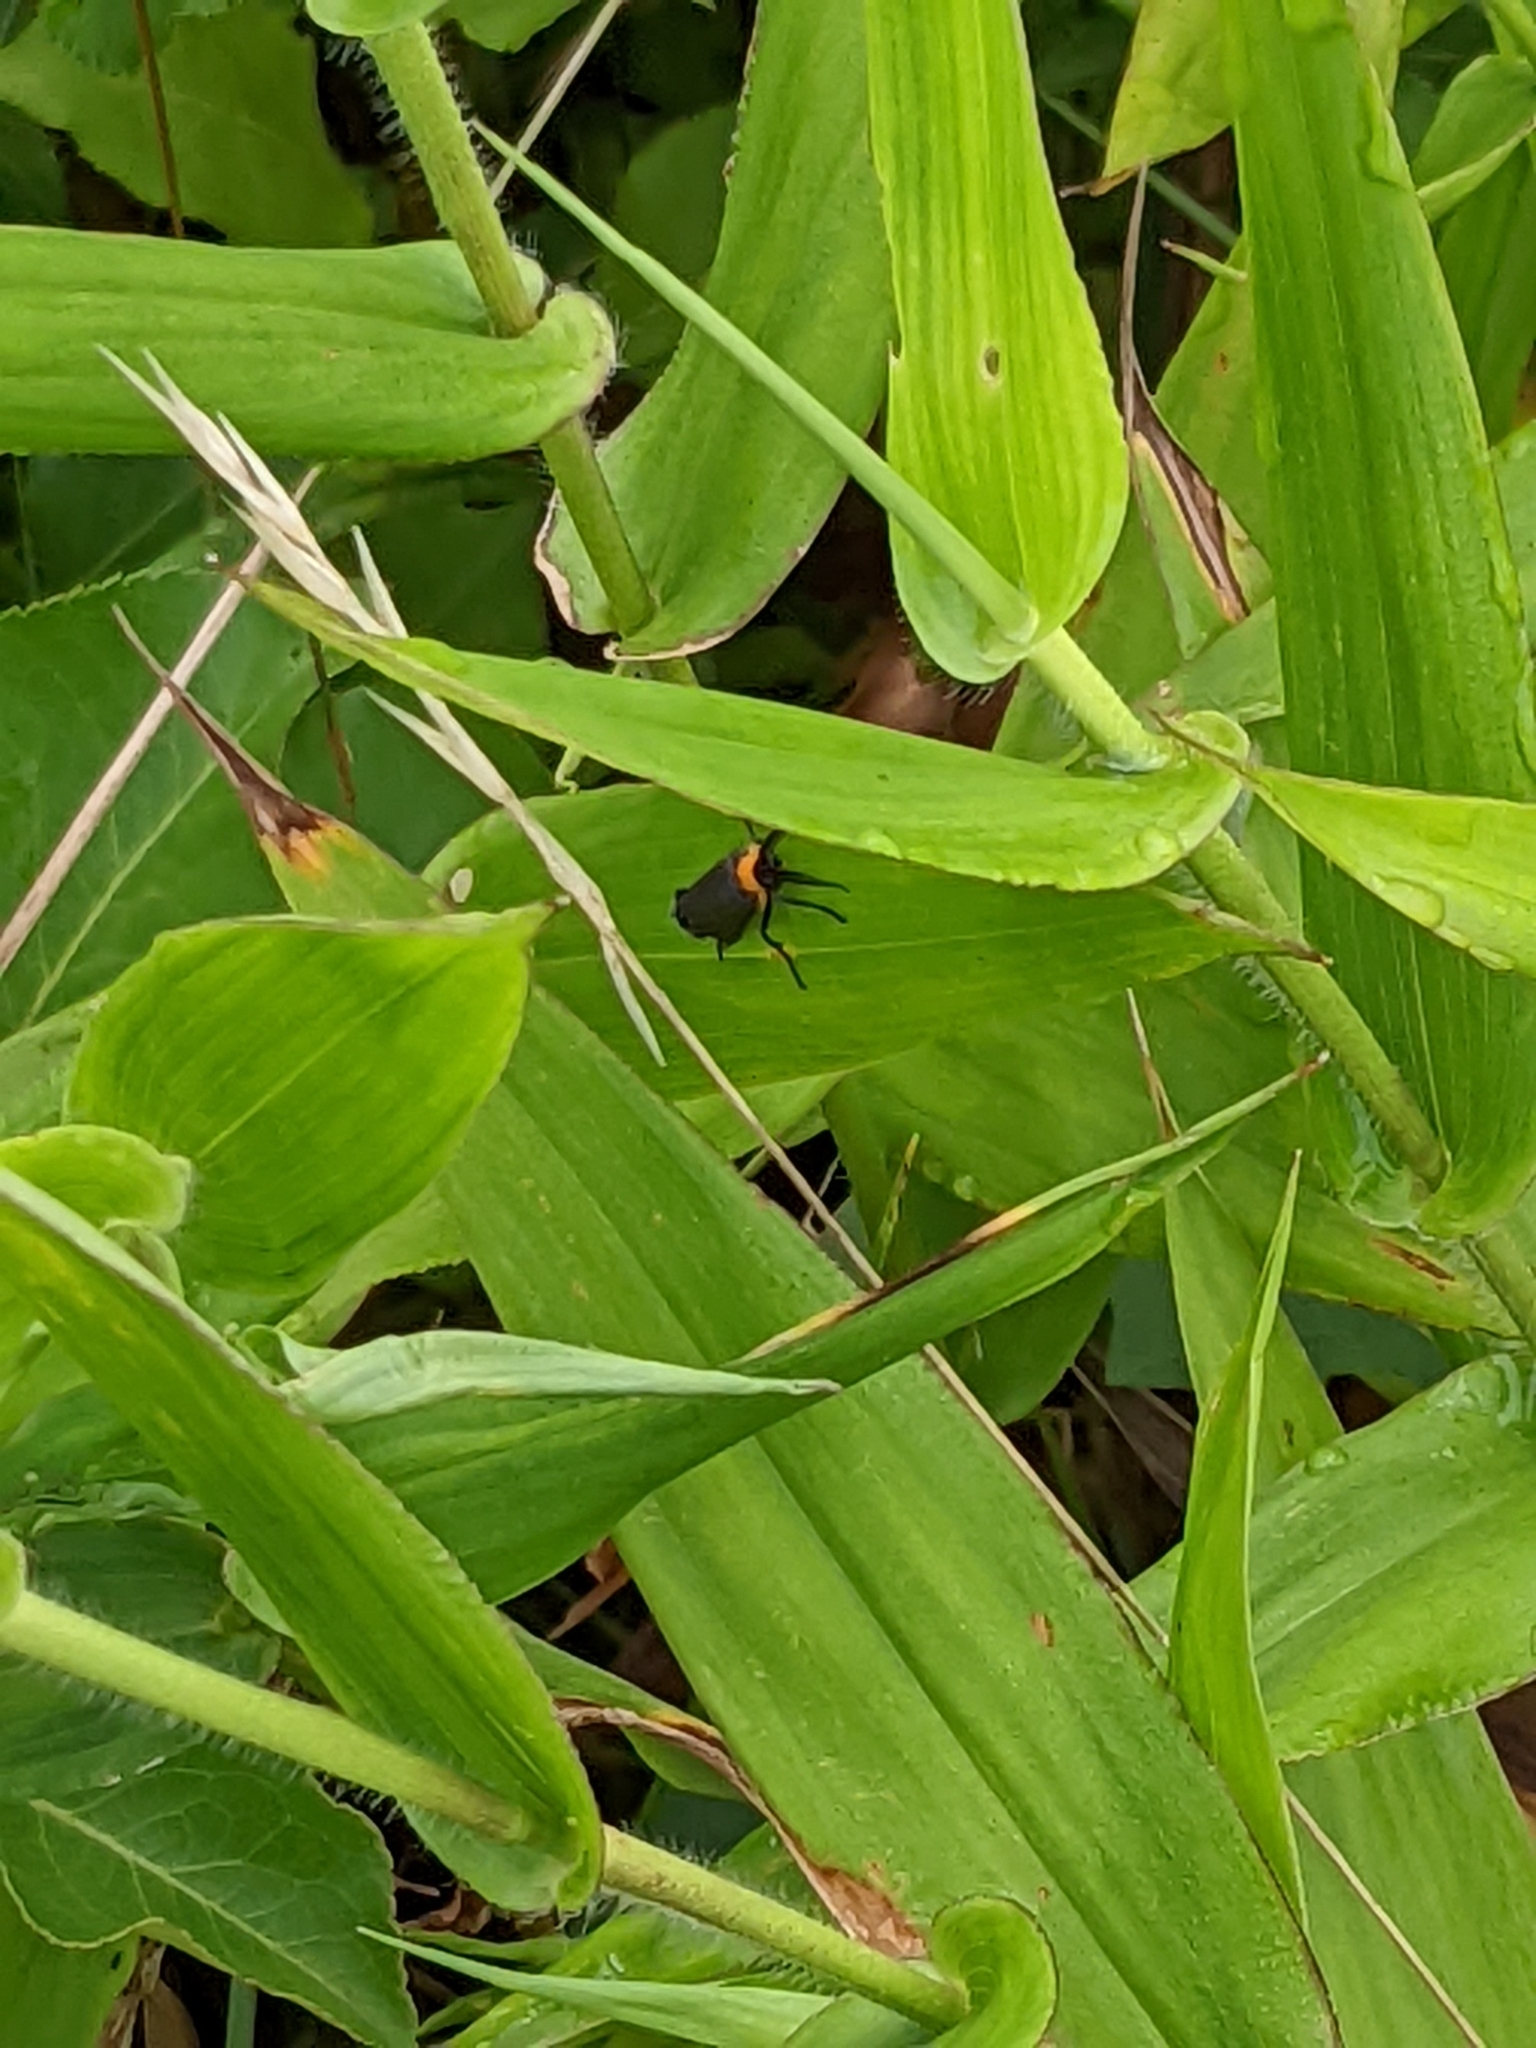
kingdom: Animalia
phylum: Arthropoda
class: Insecta
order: Lepidoptera
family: Erebidae
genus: Cisseps
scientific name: Cisseps fulvicollis
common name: Yellow-collared scape moth
